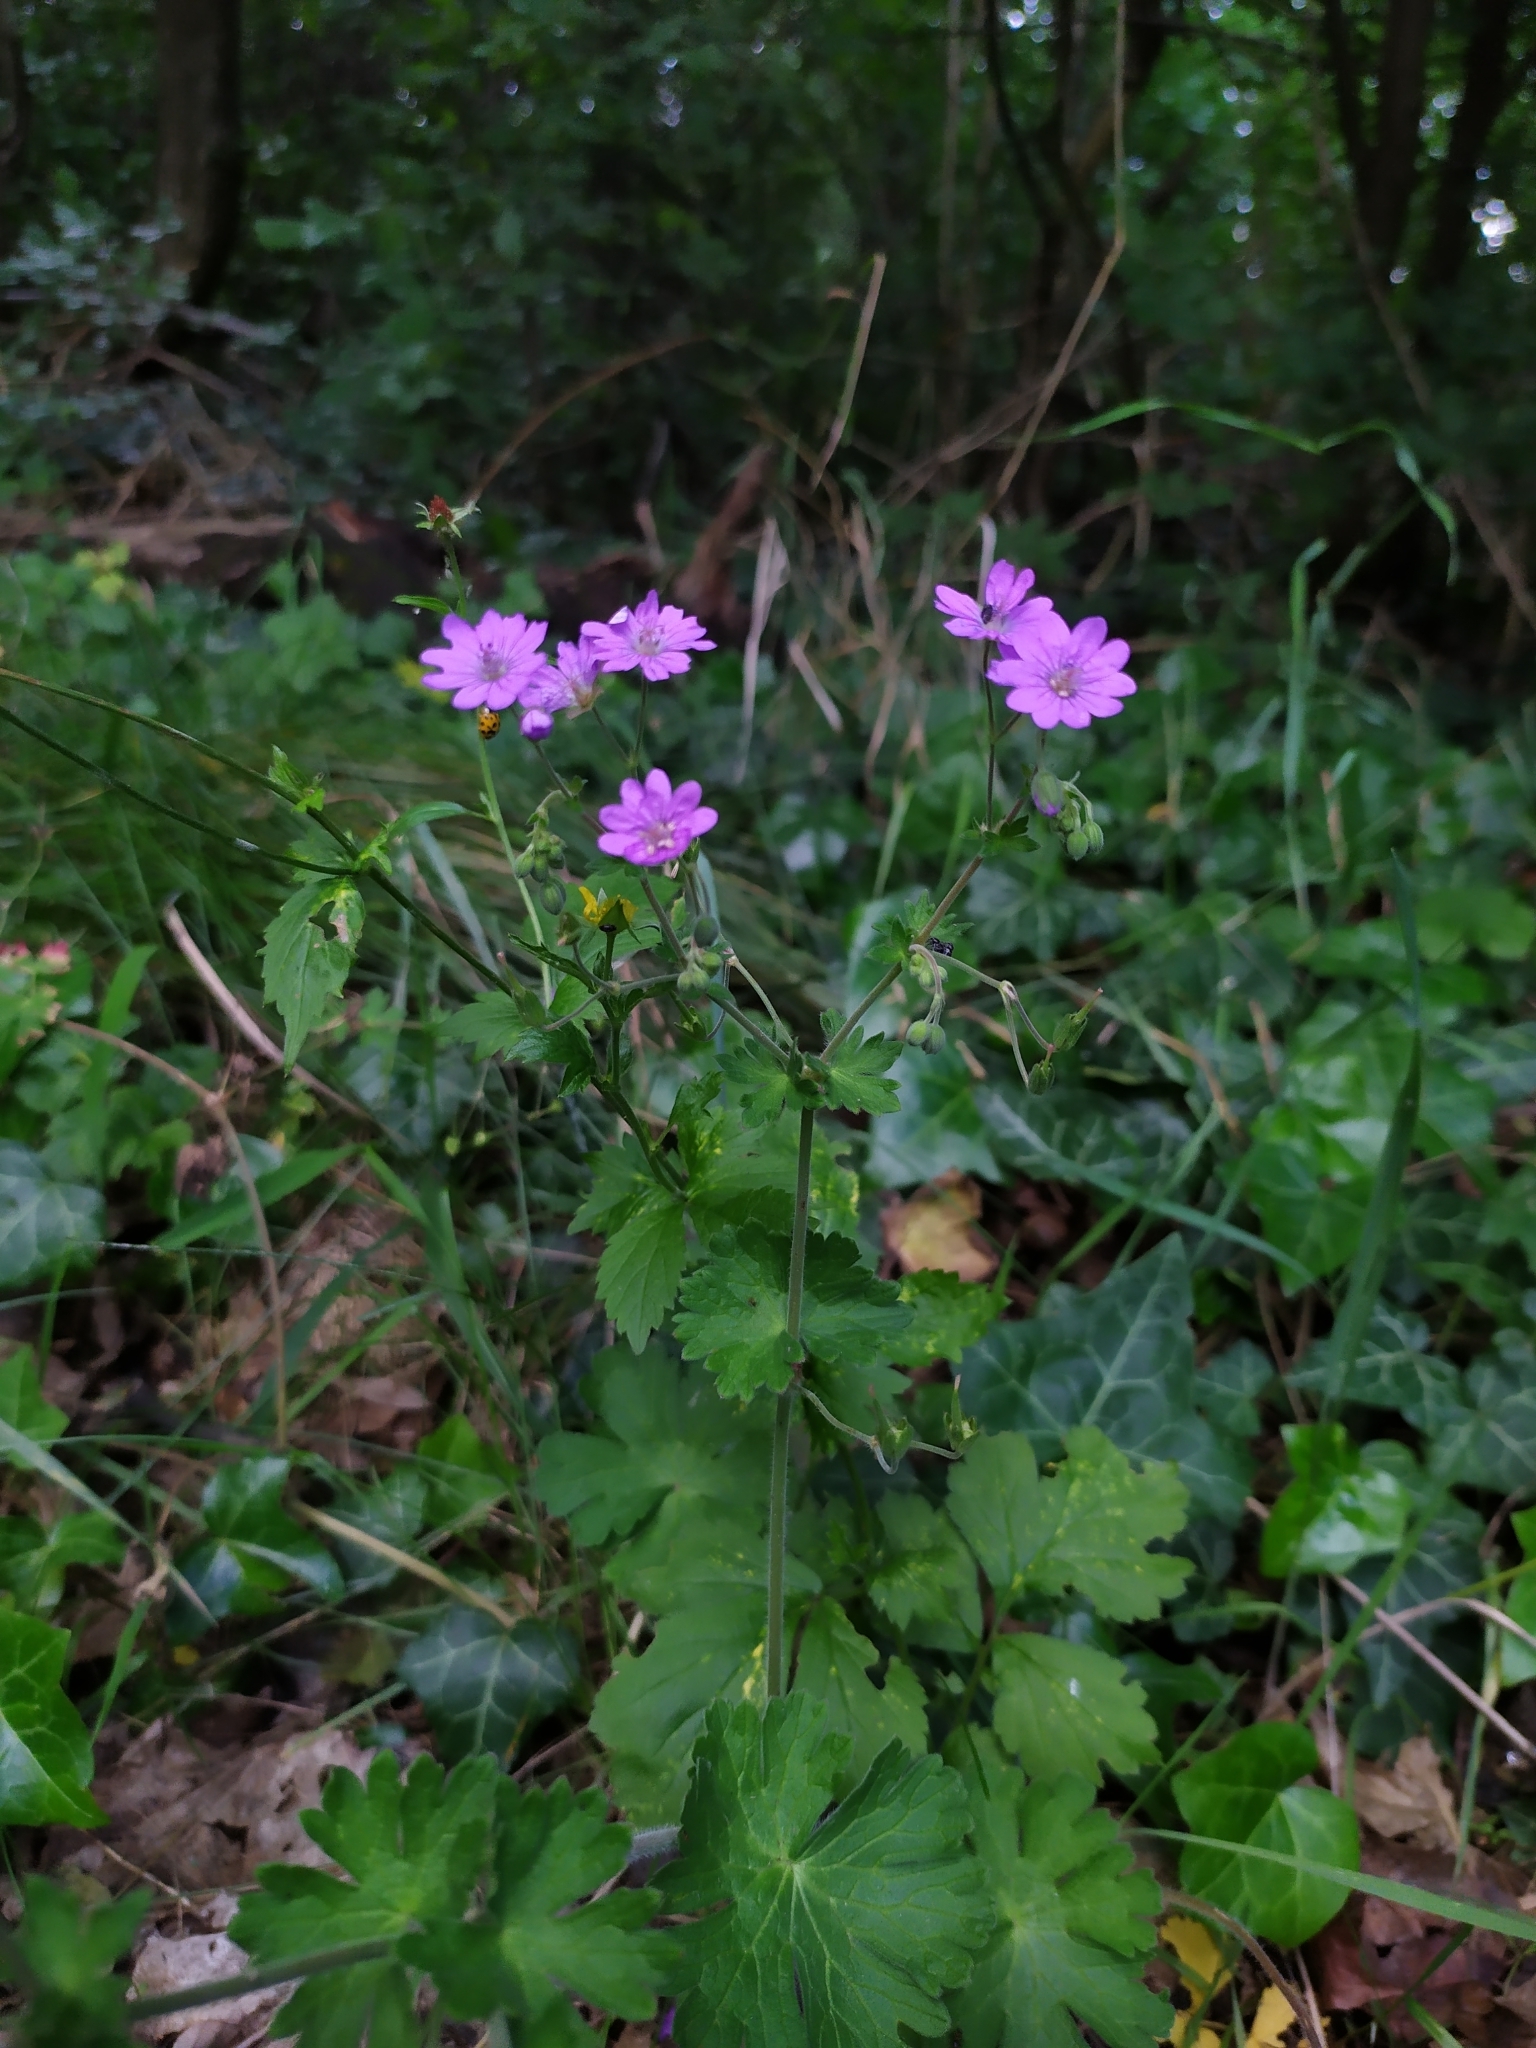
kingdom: Plantae
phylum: Tracheophyta
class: Magnoliopsida
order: Geraniales
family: Geraniaceae
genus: Geranium
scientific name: Geranium pyrenaicum
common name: Hedgerow crane's-bill
